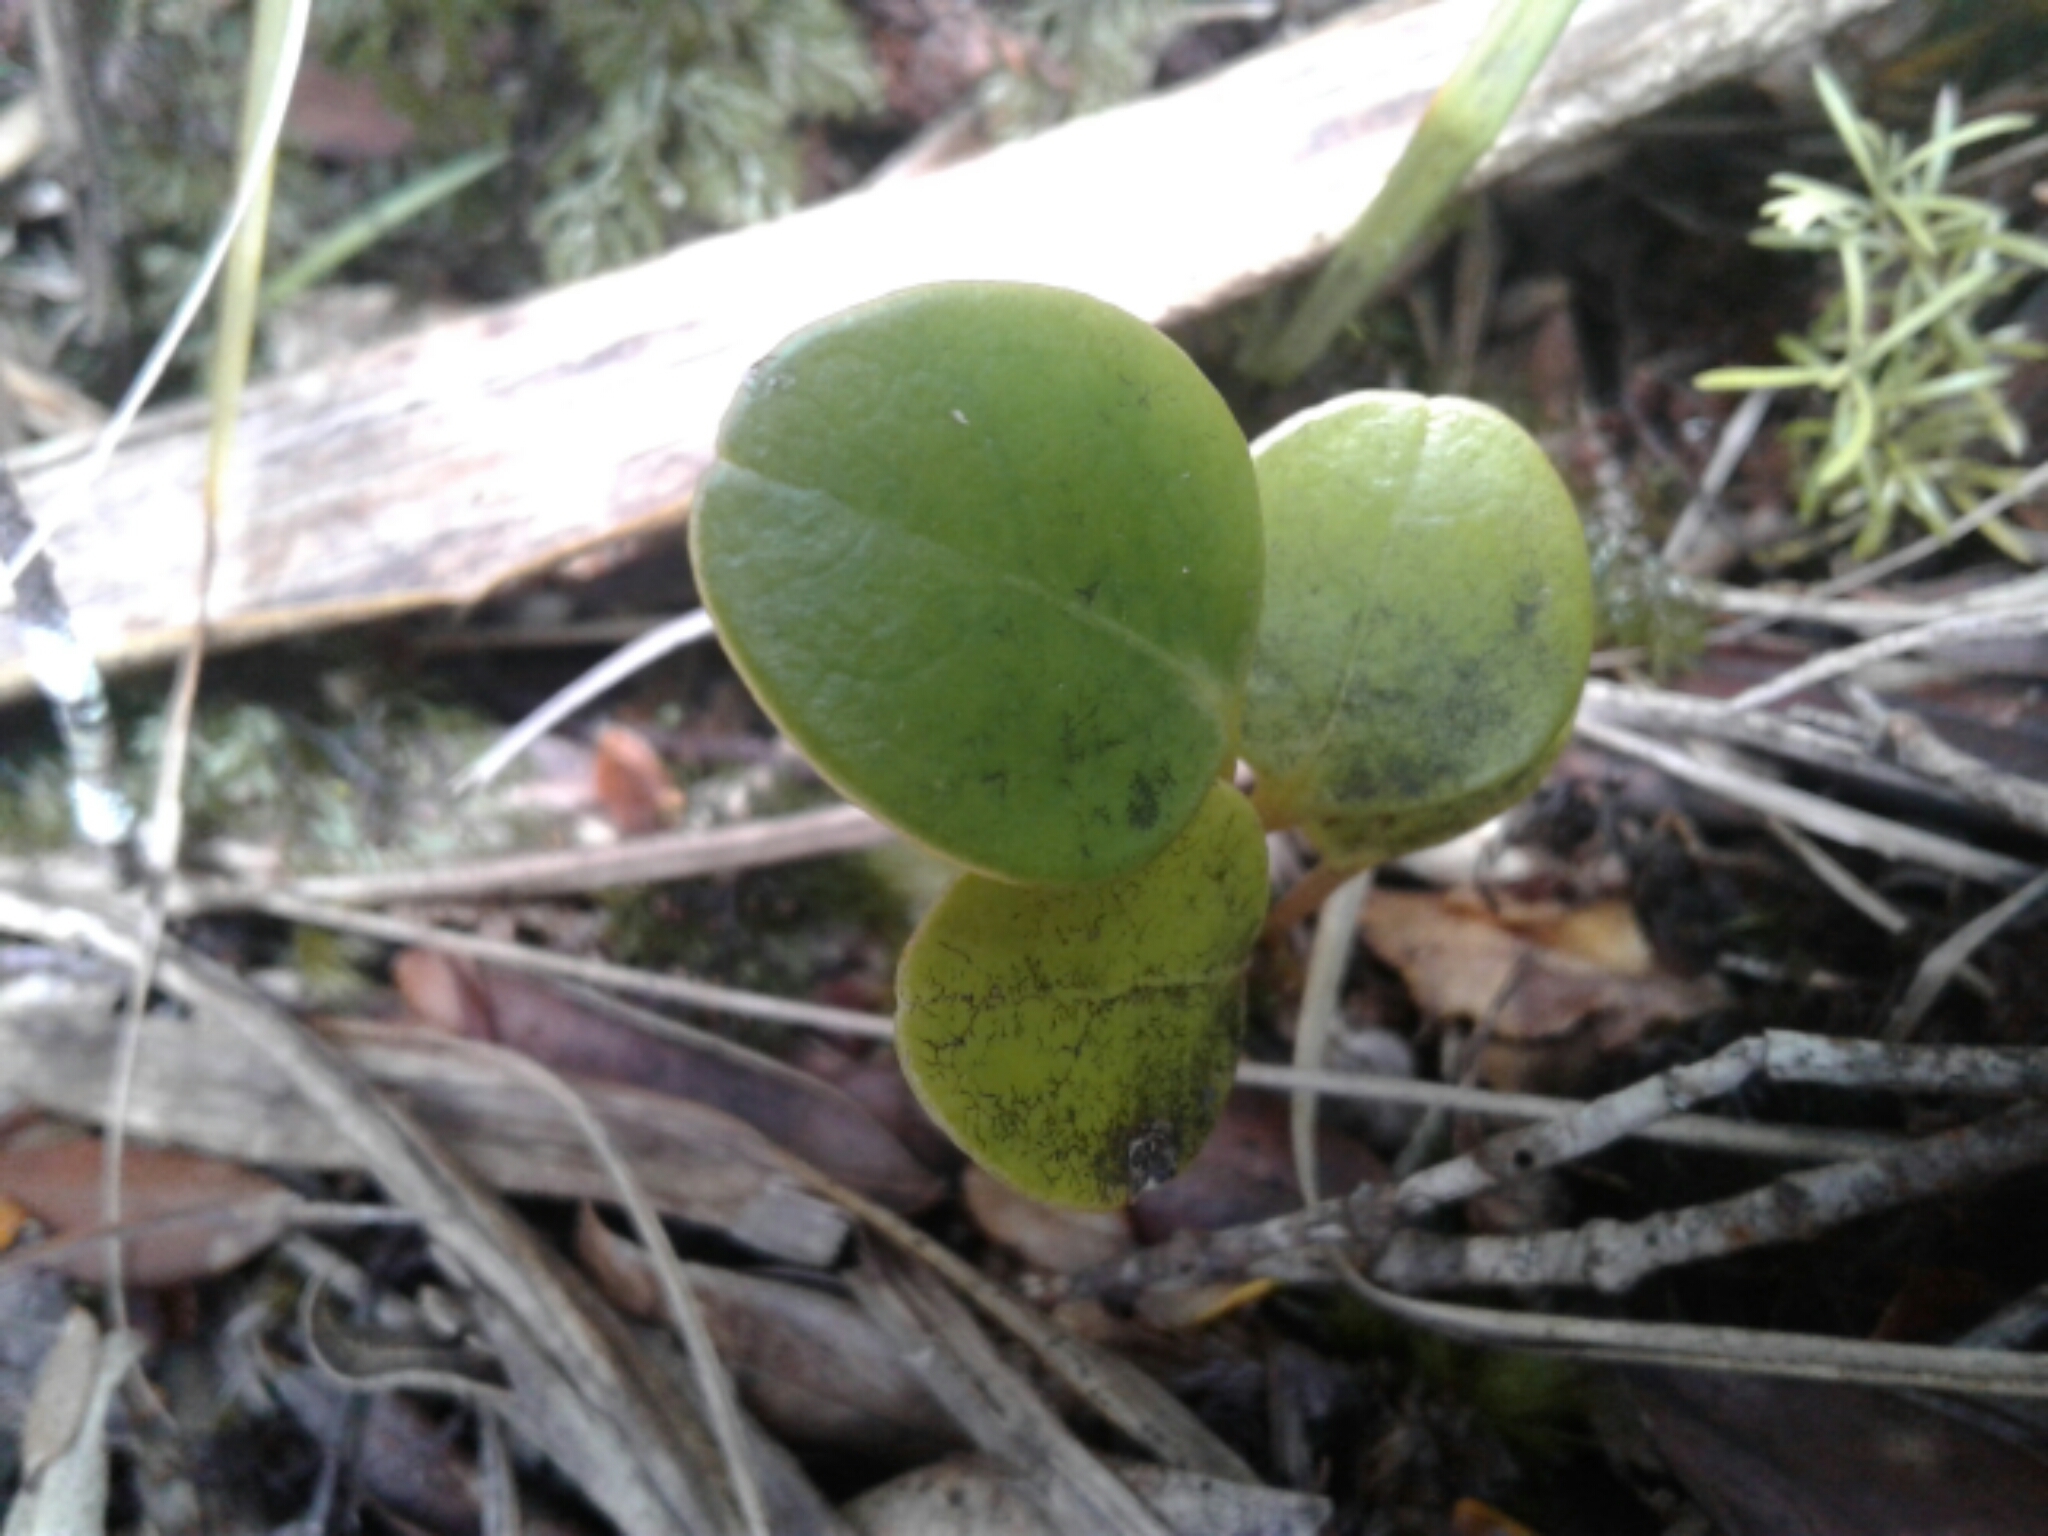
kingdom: Plantae
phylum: Tracheophyta
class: Magnoliopsida
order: Apiales
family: Griseliniaceae
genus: Griselinia
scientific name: Griselinia littoralis
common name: New zealand broadleaf
